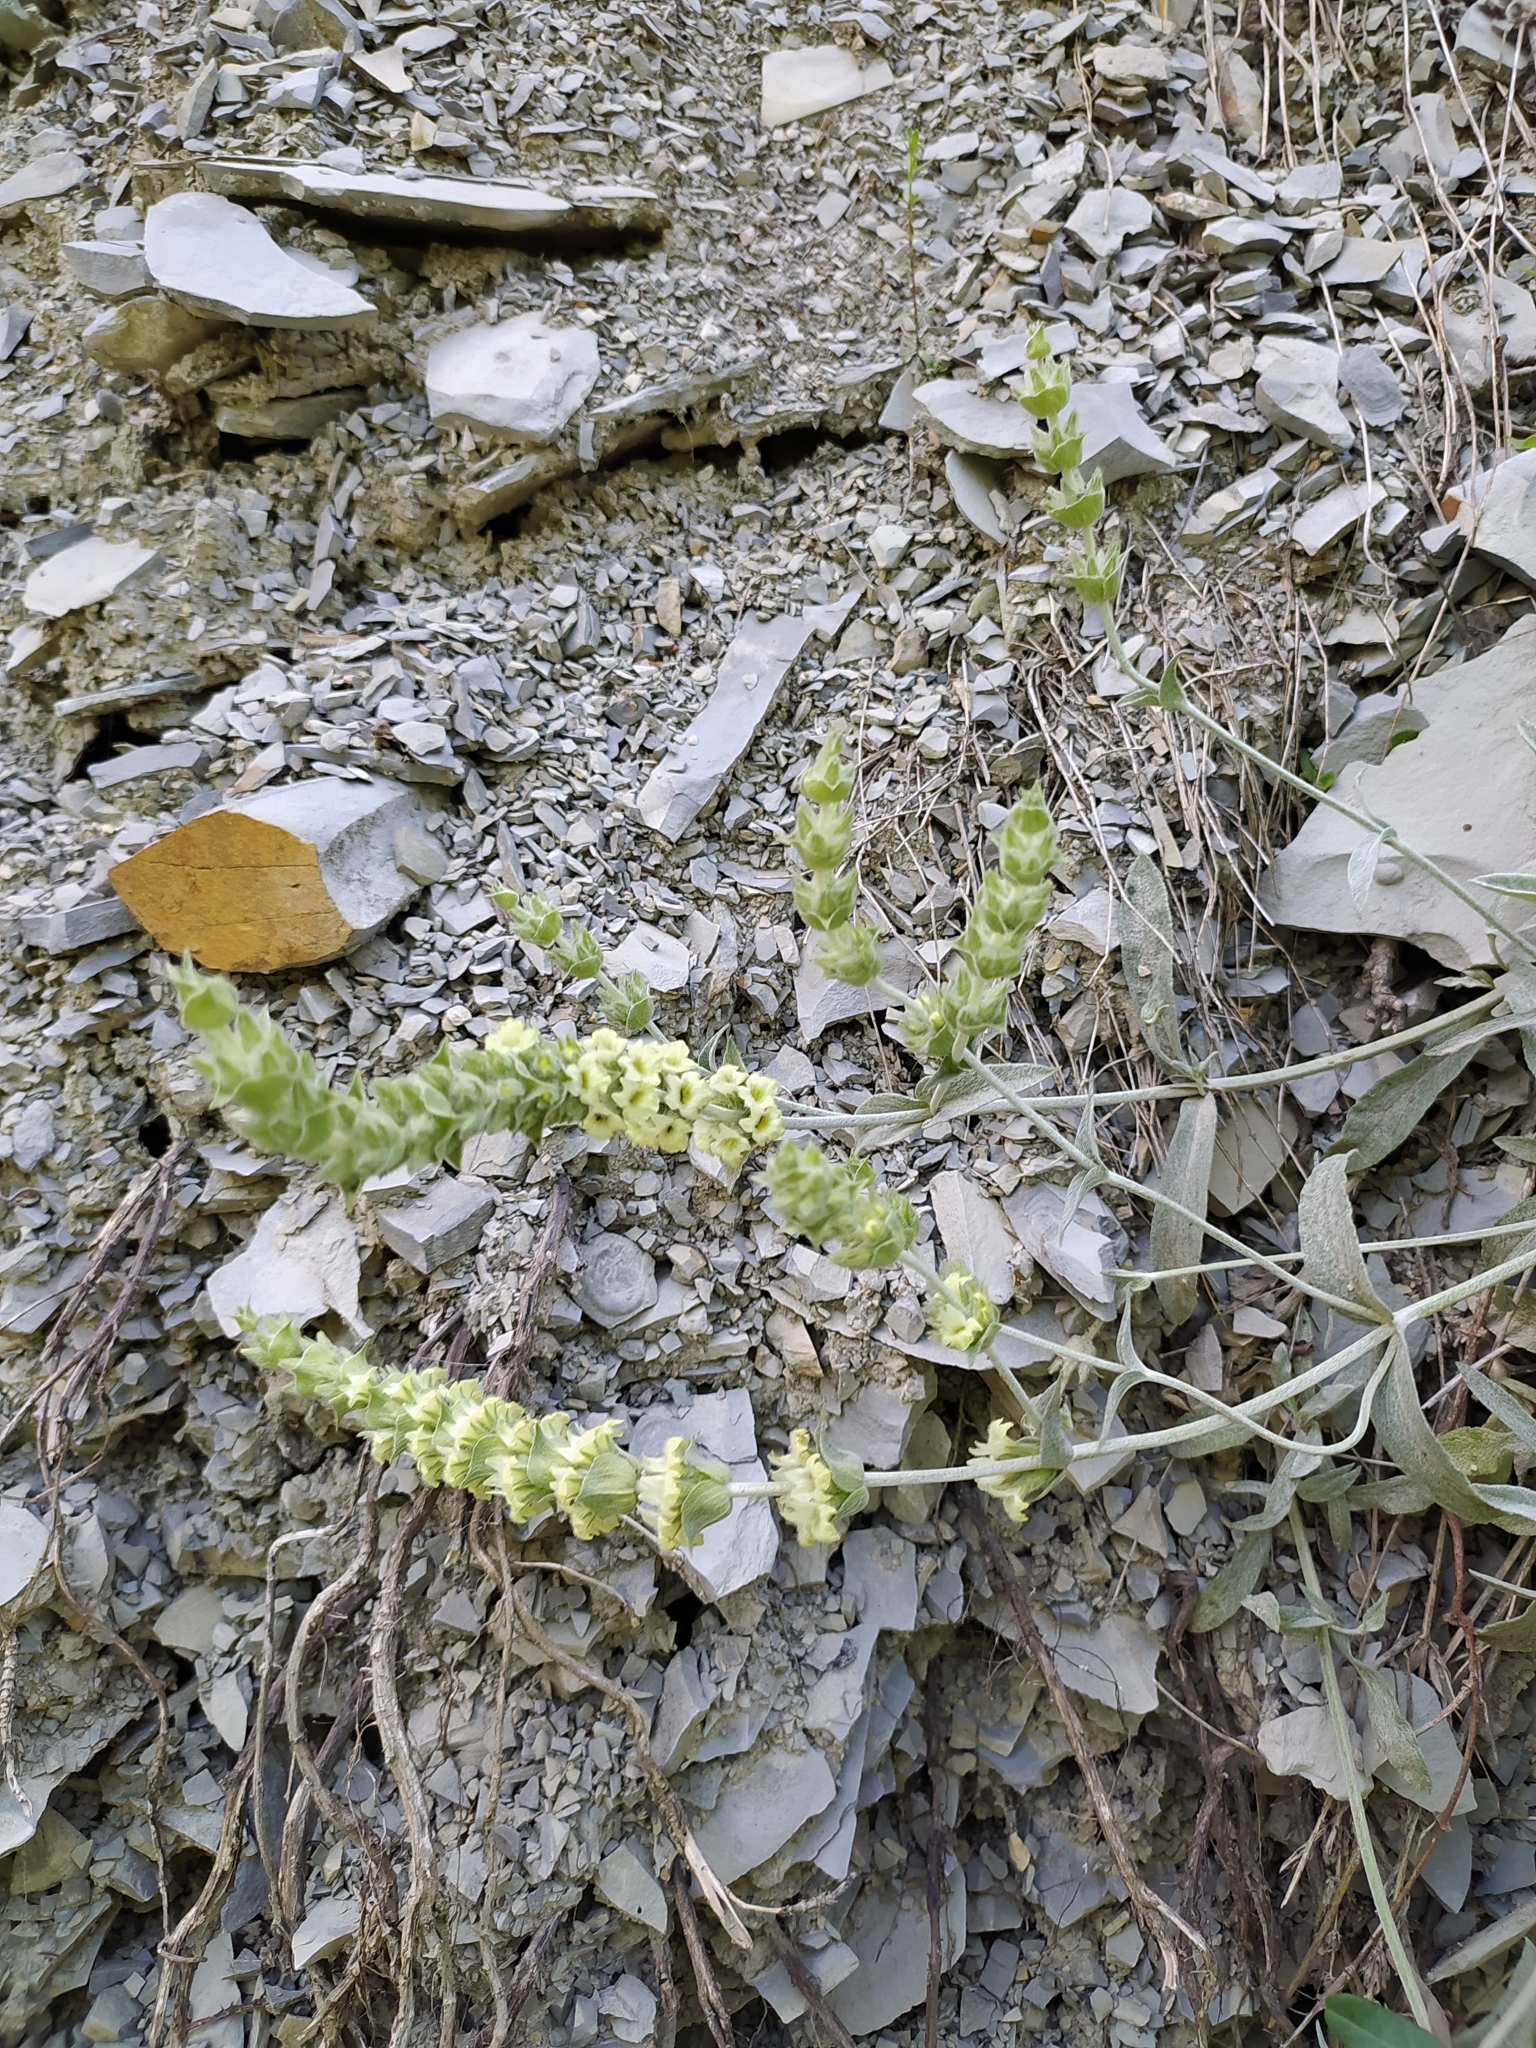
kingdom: Plantae
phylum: Tracheophyta
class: Magnoliopsida
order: Lamiales
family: Lamiaceae
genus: Sideritis
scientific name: Sideritis euxina
